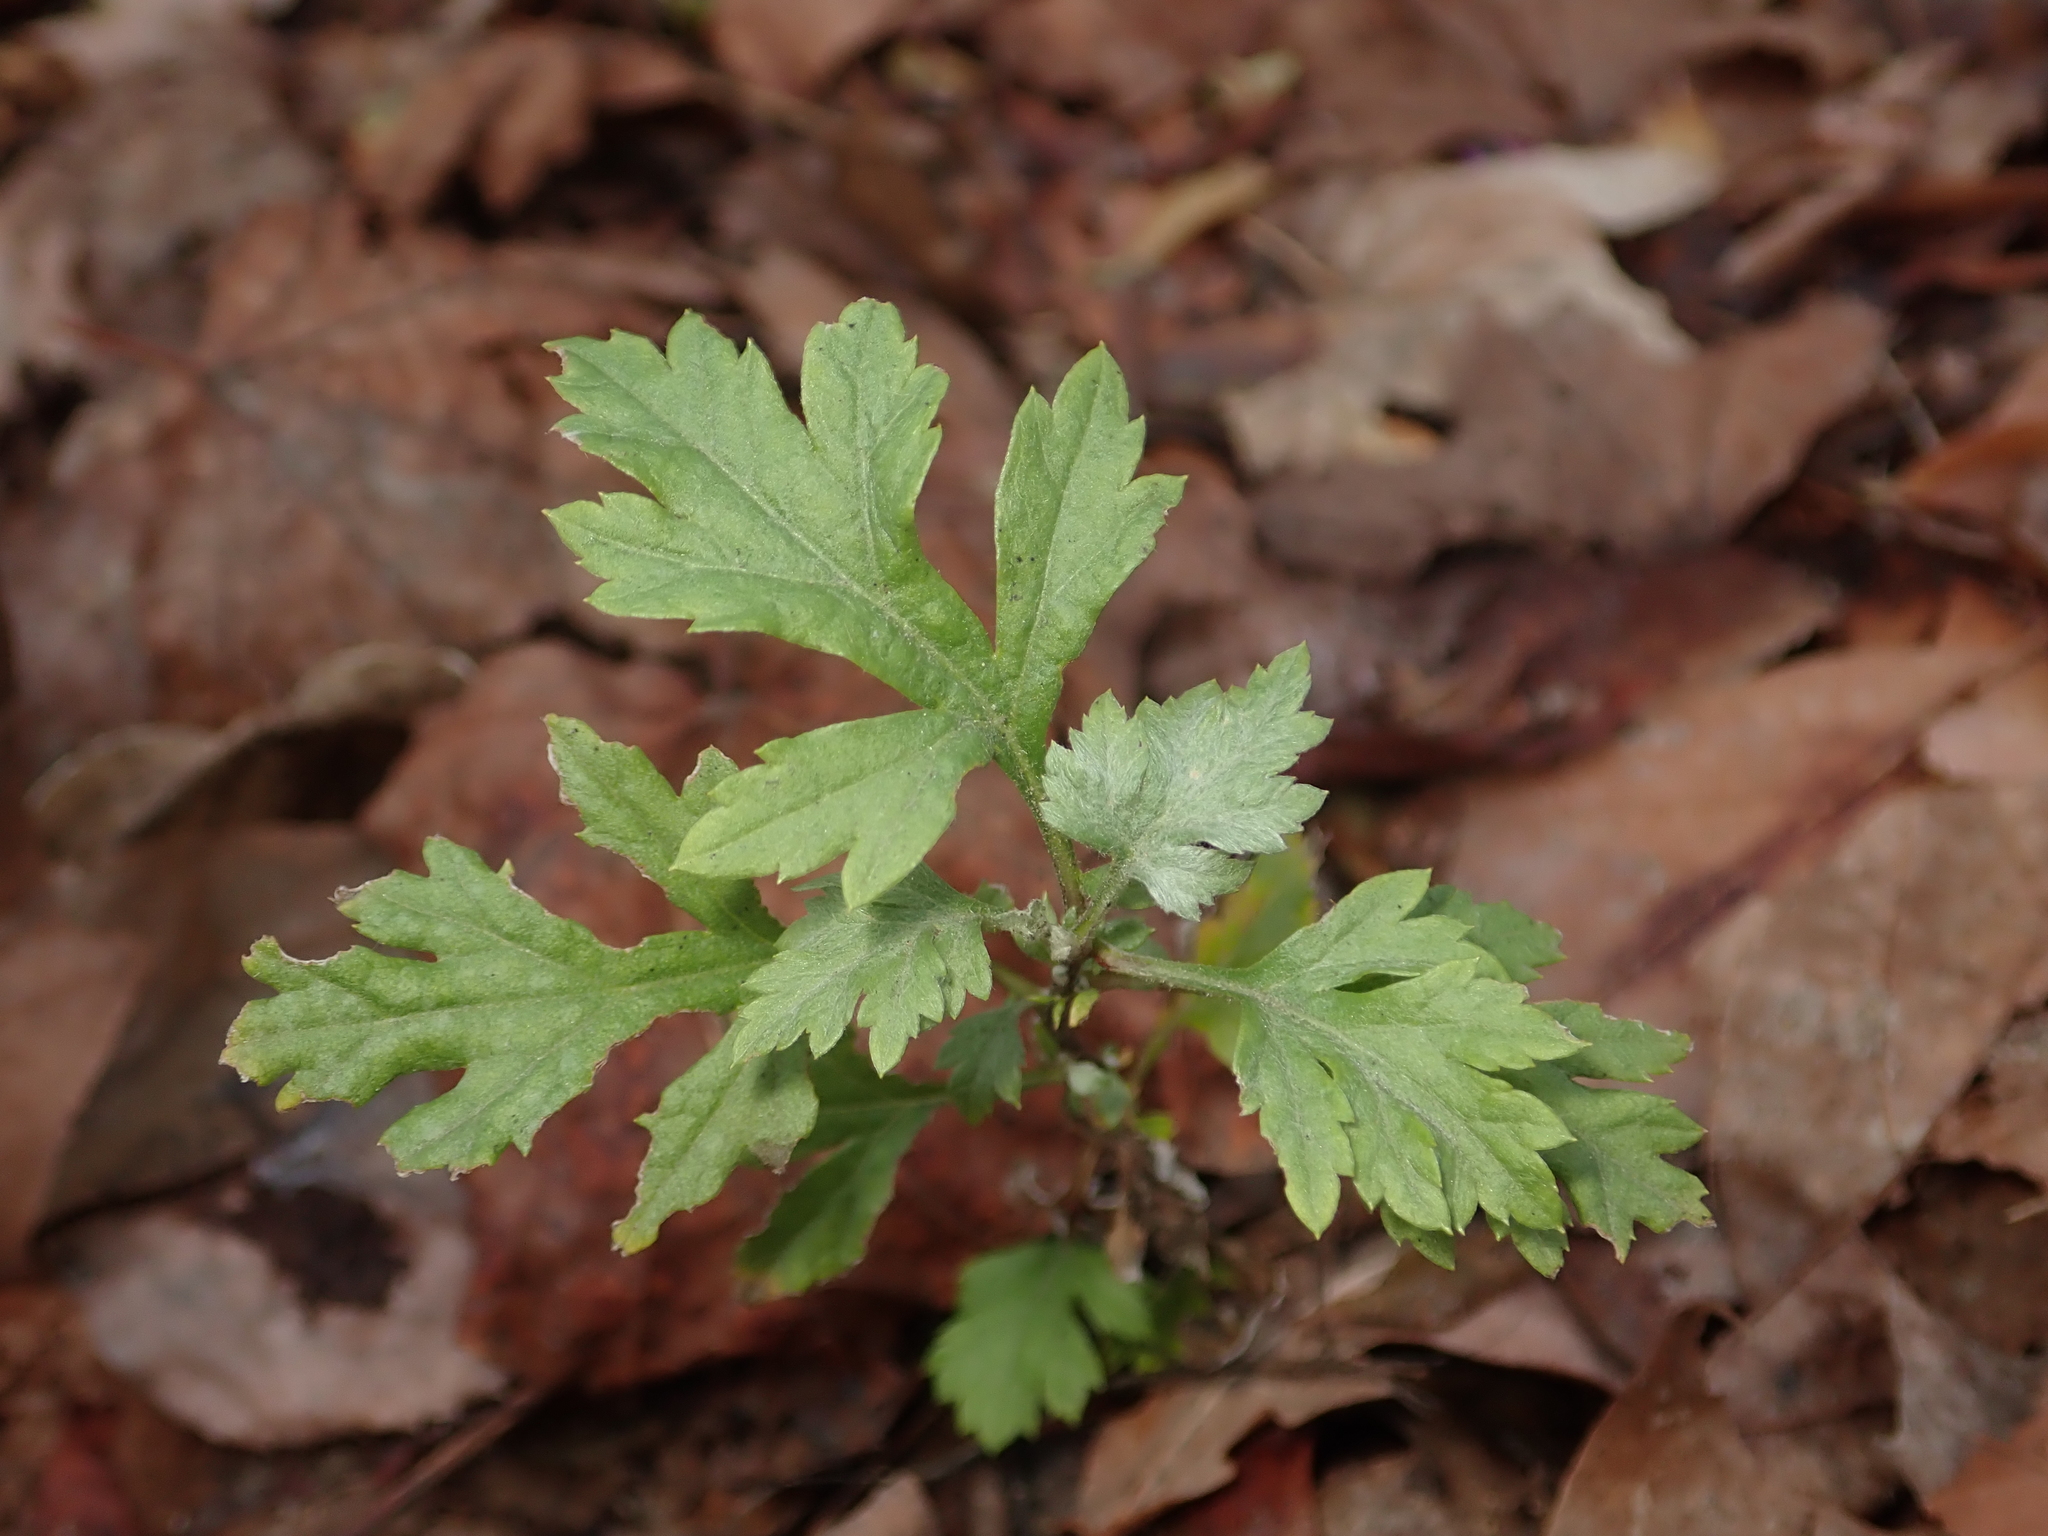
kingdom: Plantae
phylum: Tracheophyta
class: Magnoliopsida
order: Asterales
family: Asteraceae
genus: Artemisia
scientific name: Artemisia vulgaris
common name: Mugwort
